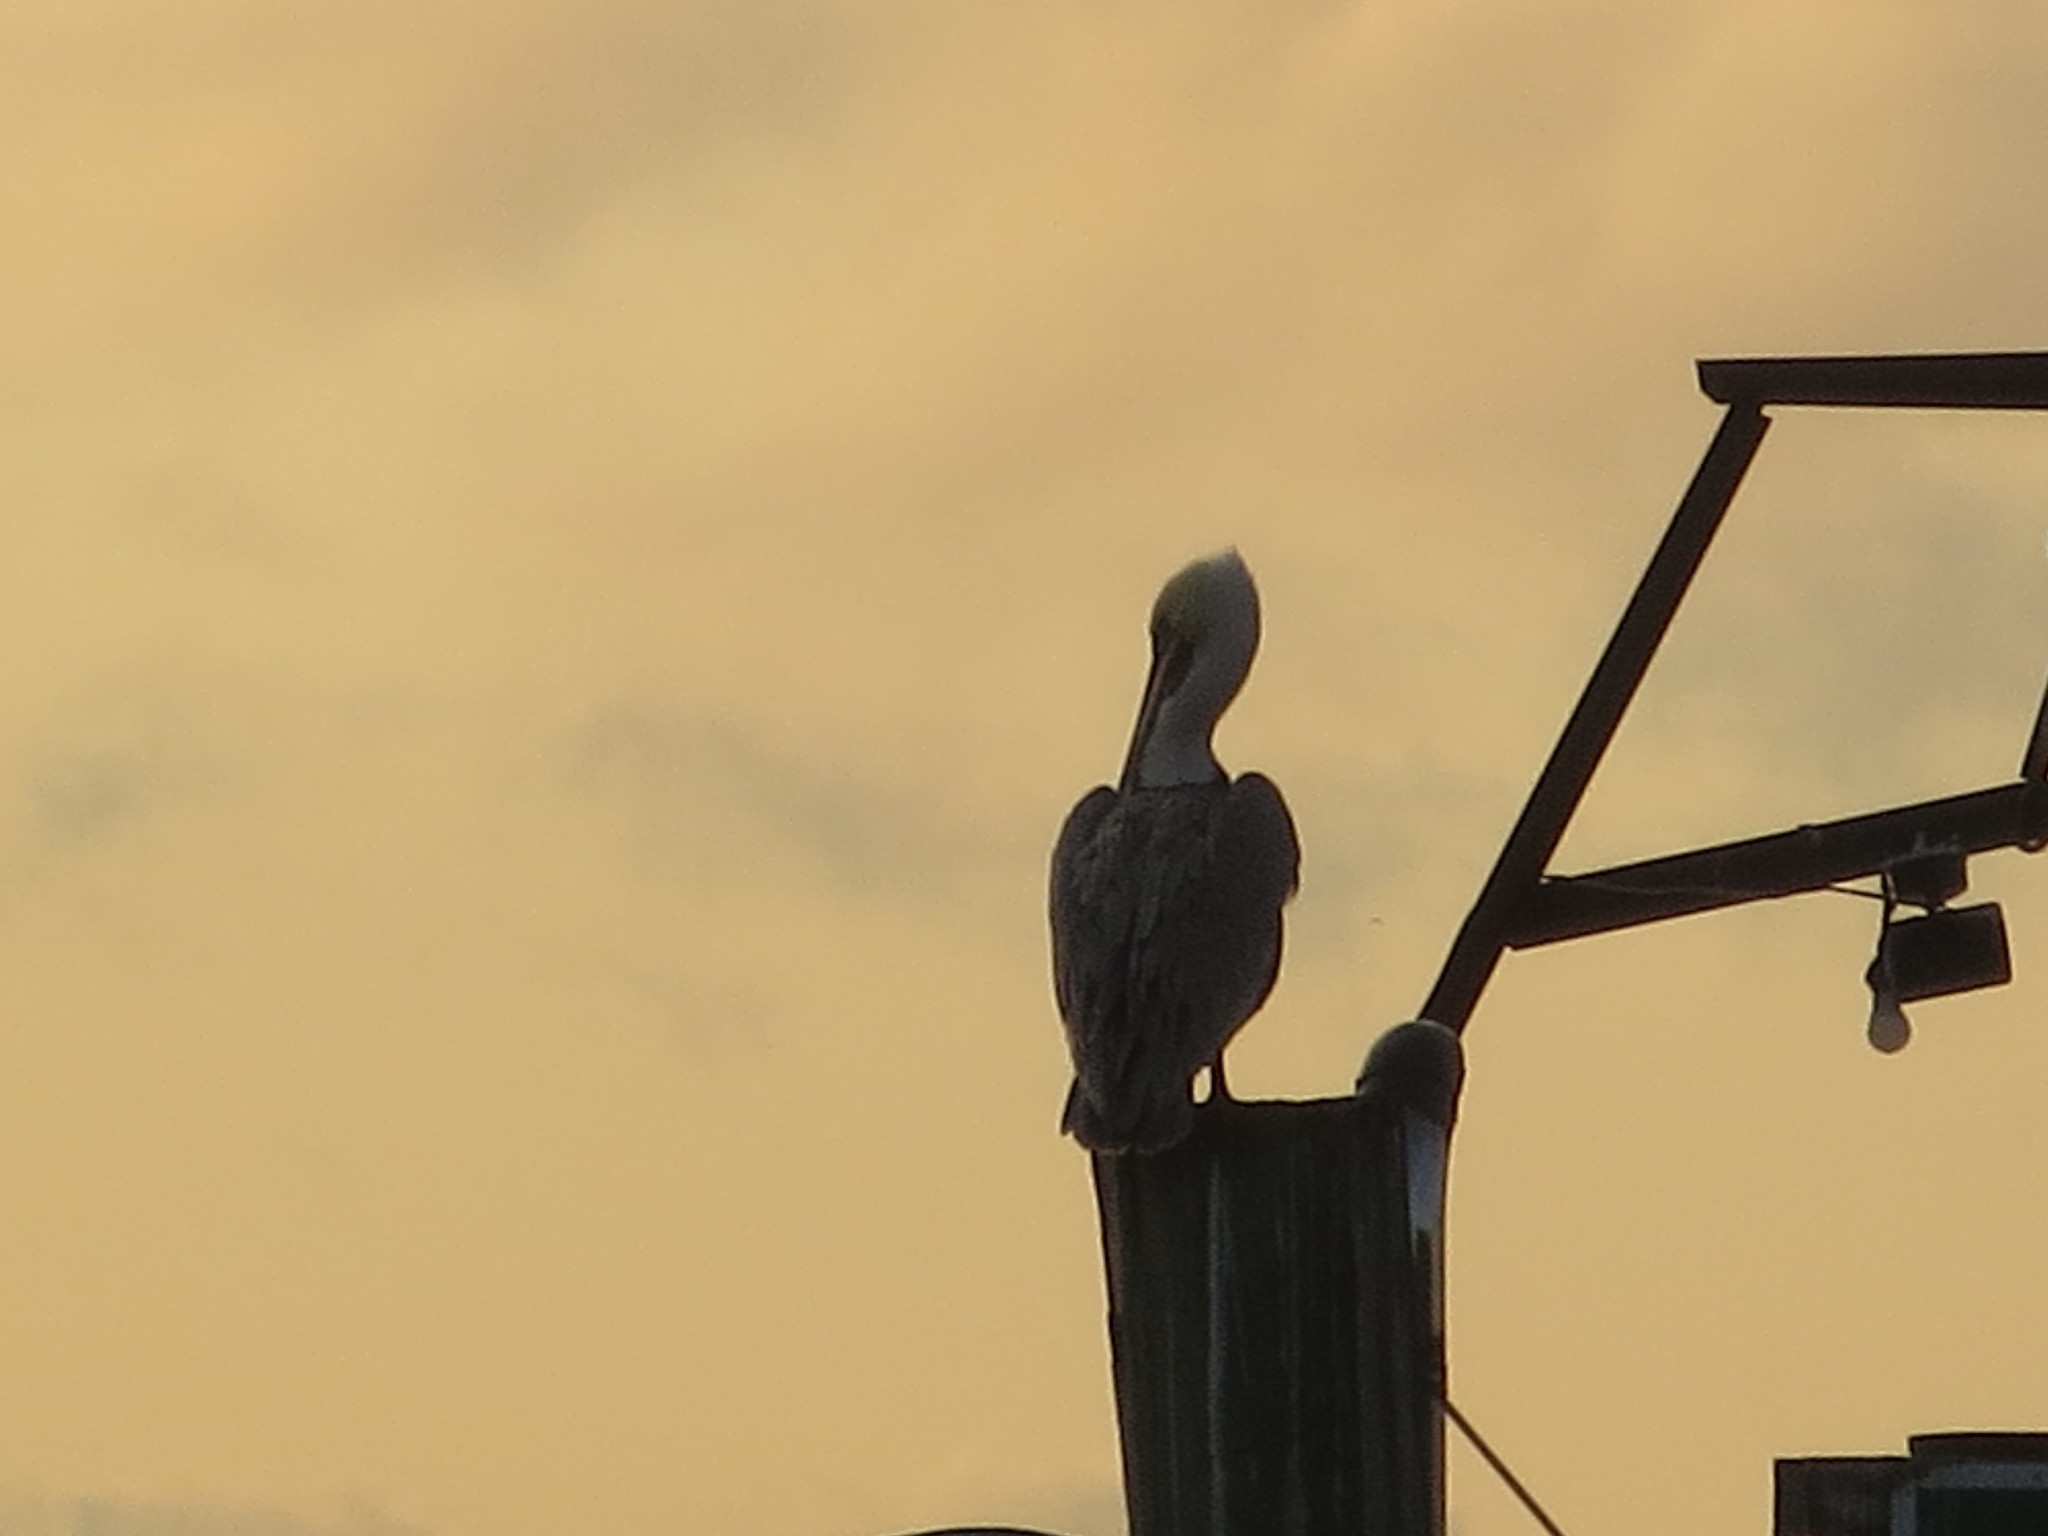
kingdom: Animalia
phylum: Chordata
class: Aves
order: Pelecaniformes
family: Pelecanidae
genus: Pelecanus
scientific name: Pelecanus occidentalis
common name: Brown pelican
